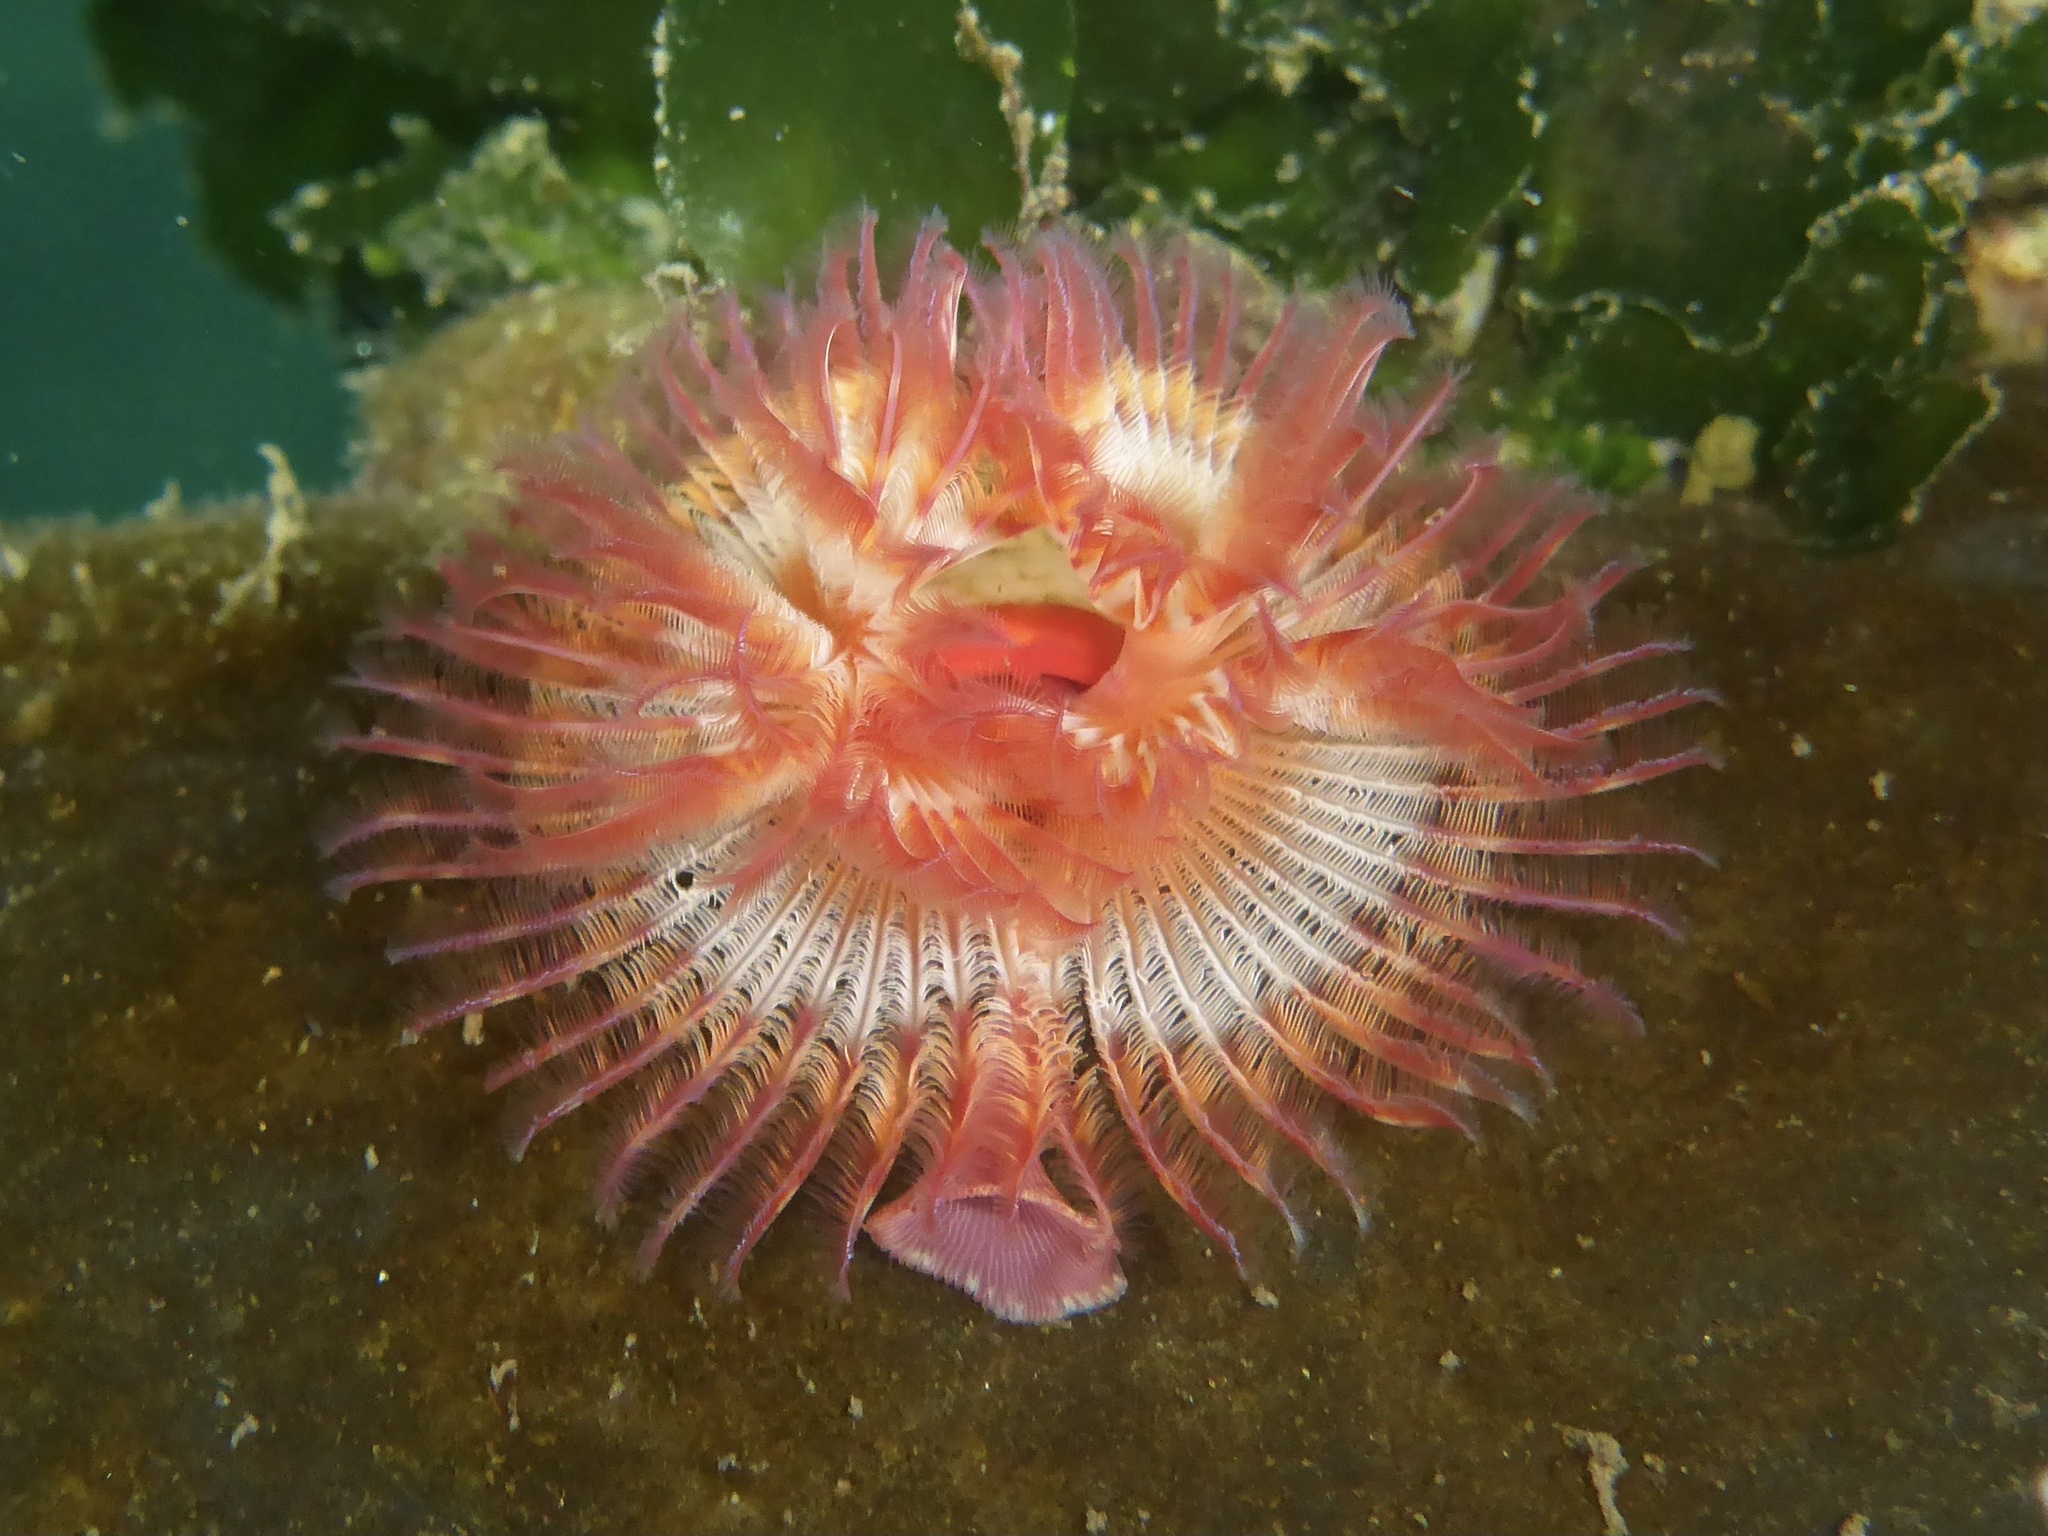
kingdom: Animalia
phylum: Annelida
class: Polychaeta
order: Sabellida
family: Serpulidae
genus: Serpula
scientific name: Serpula columbiana
